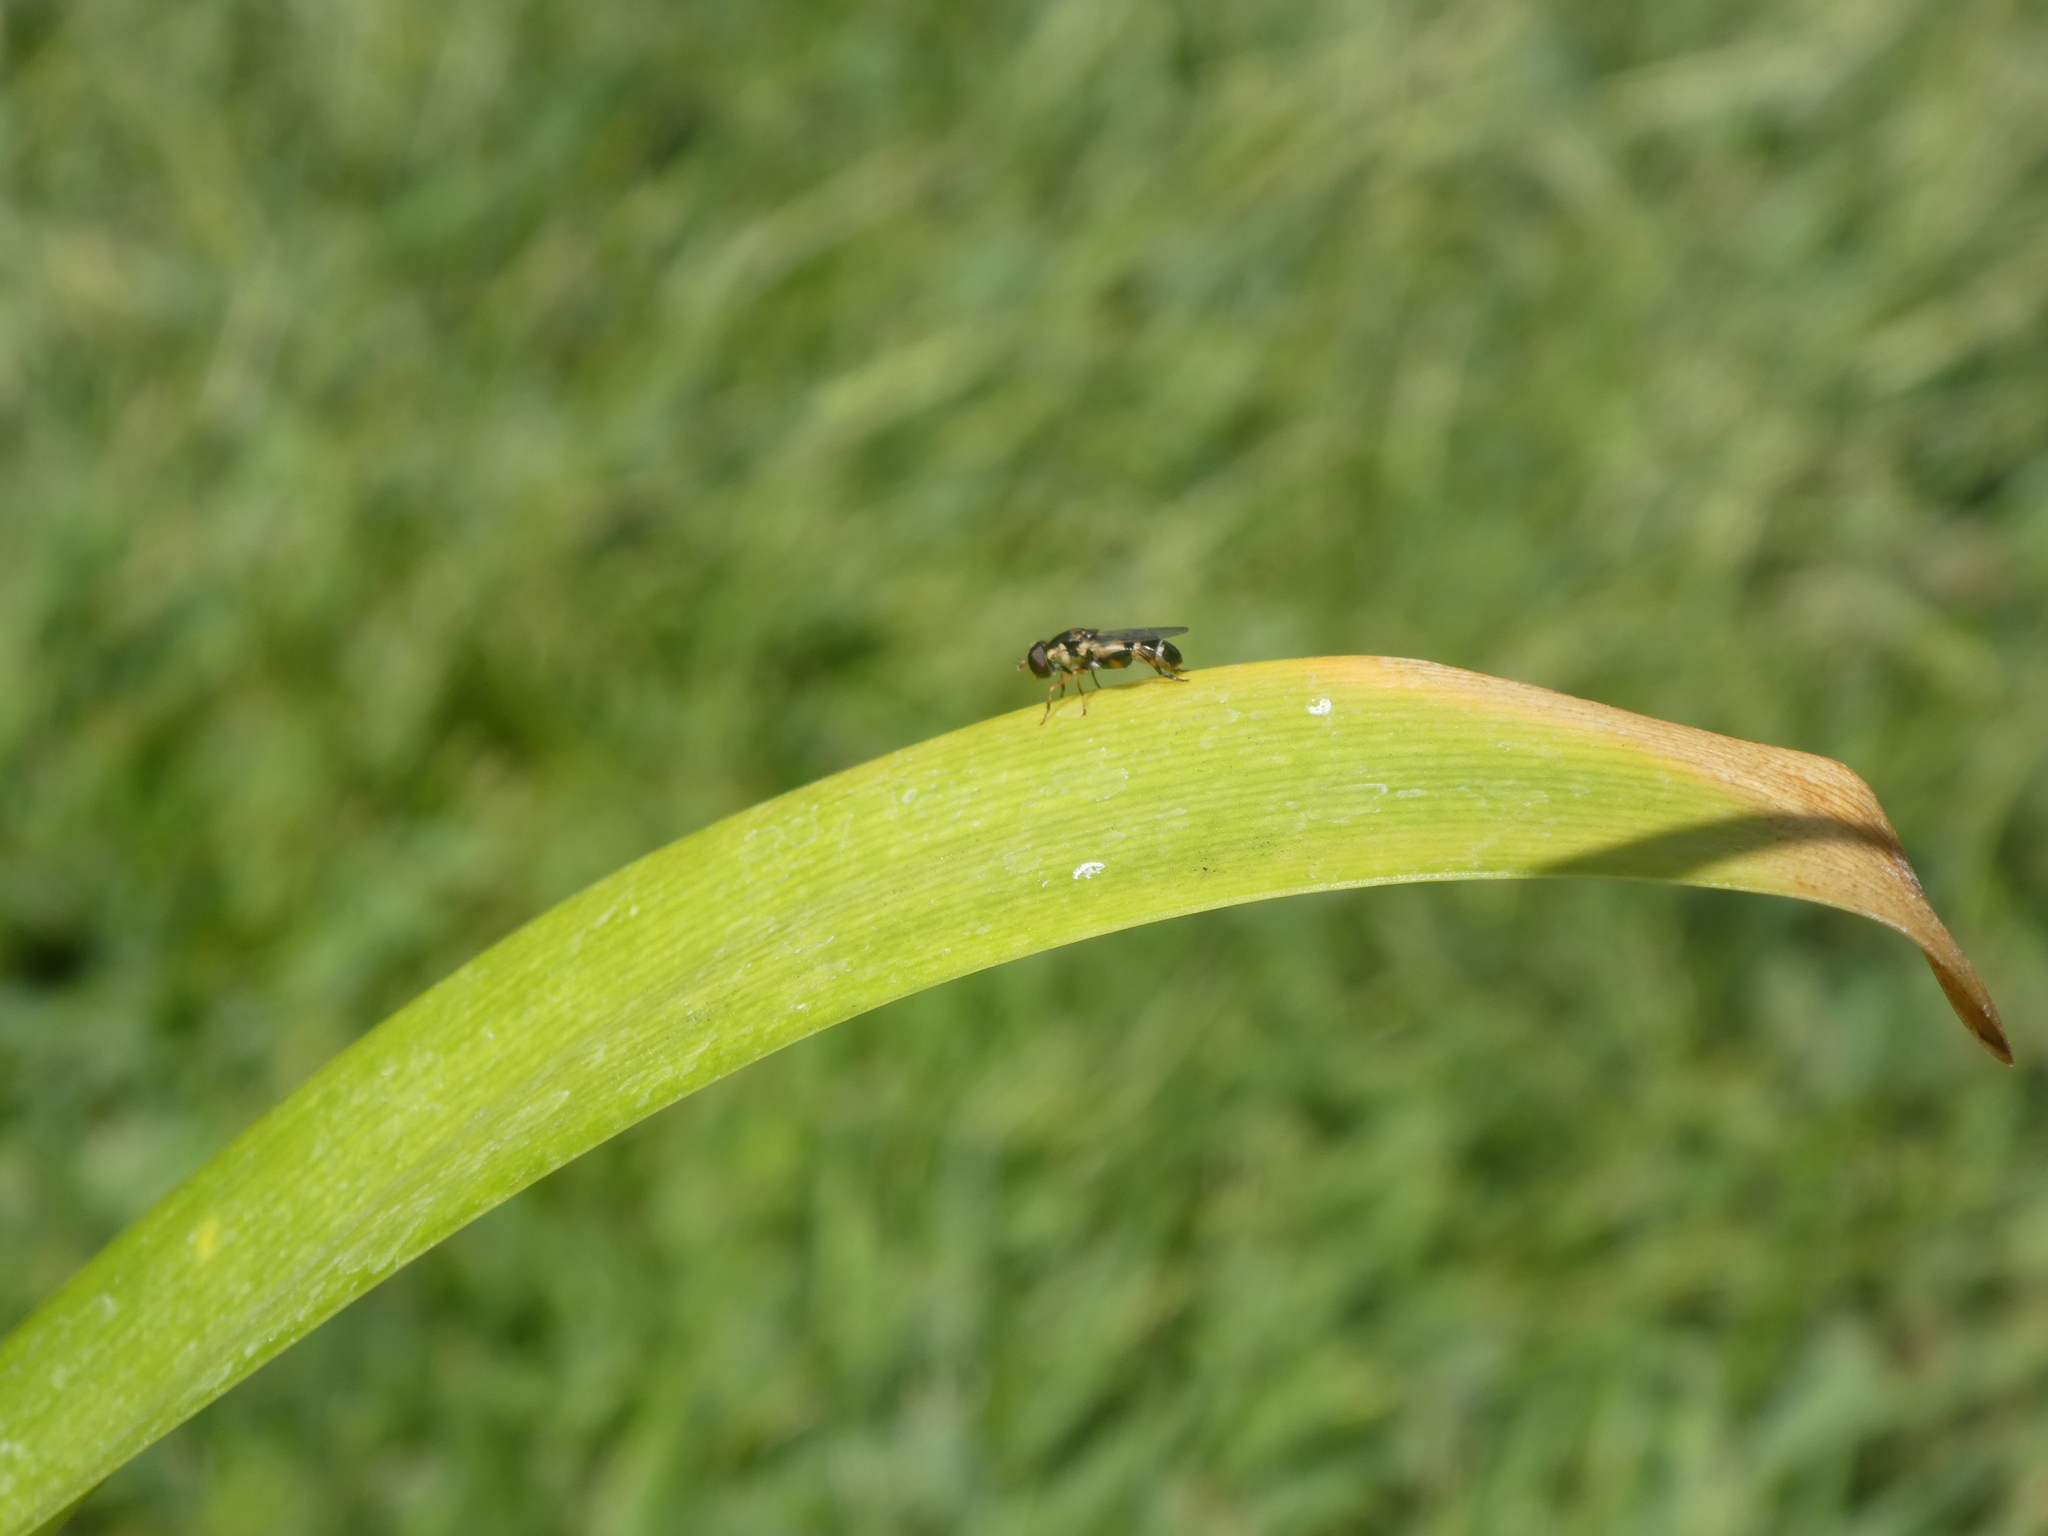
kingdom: Animalia
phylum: Arthropoda
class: Insecta
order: Diptera
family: Syrphidae
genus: Syritta
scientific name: Syritta pipiens
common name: Hover fly
